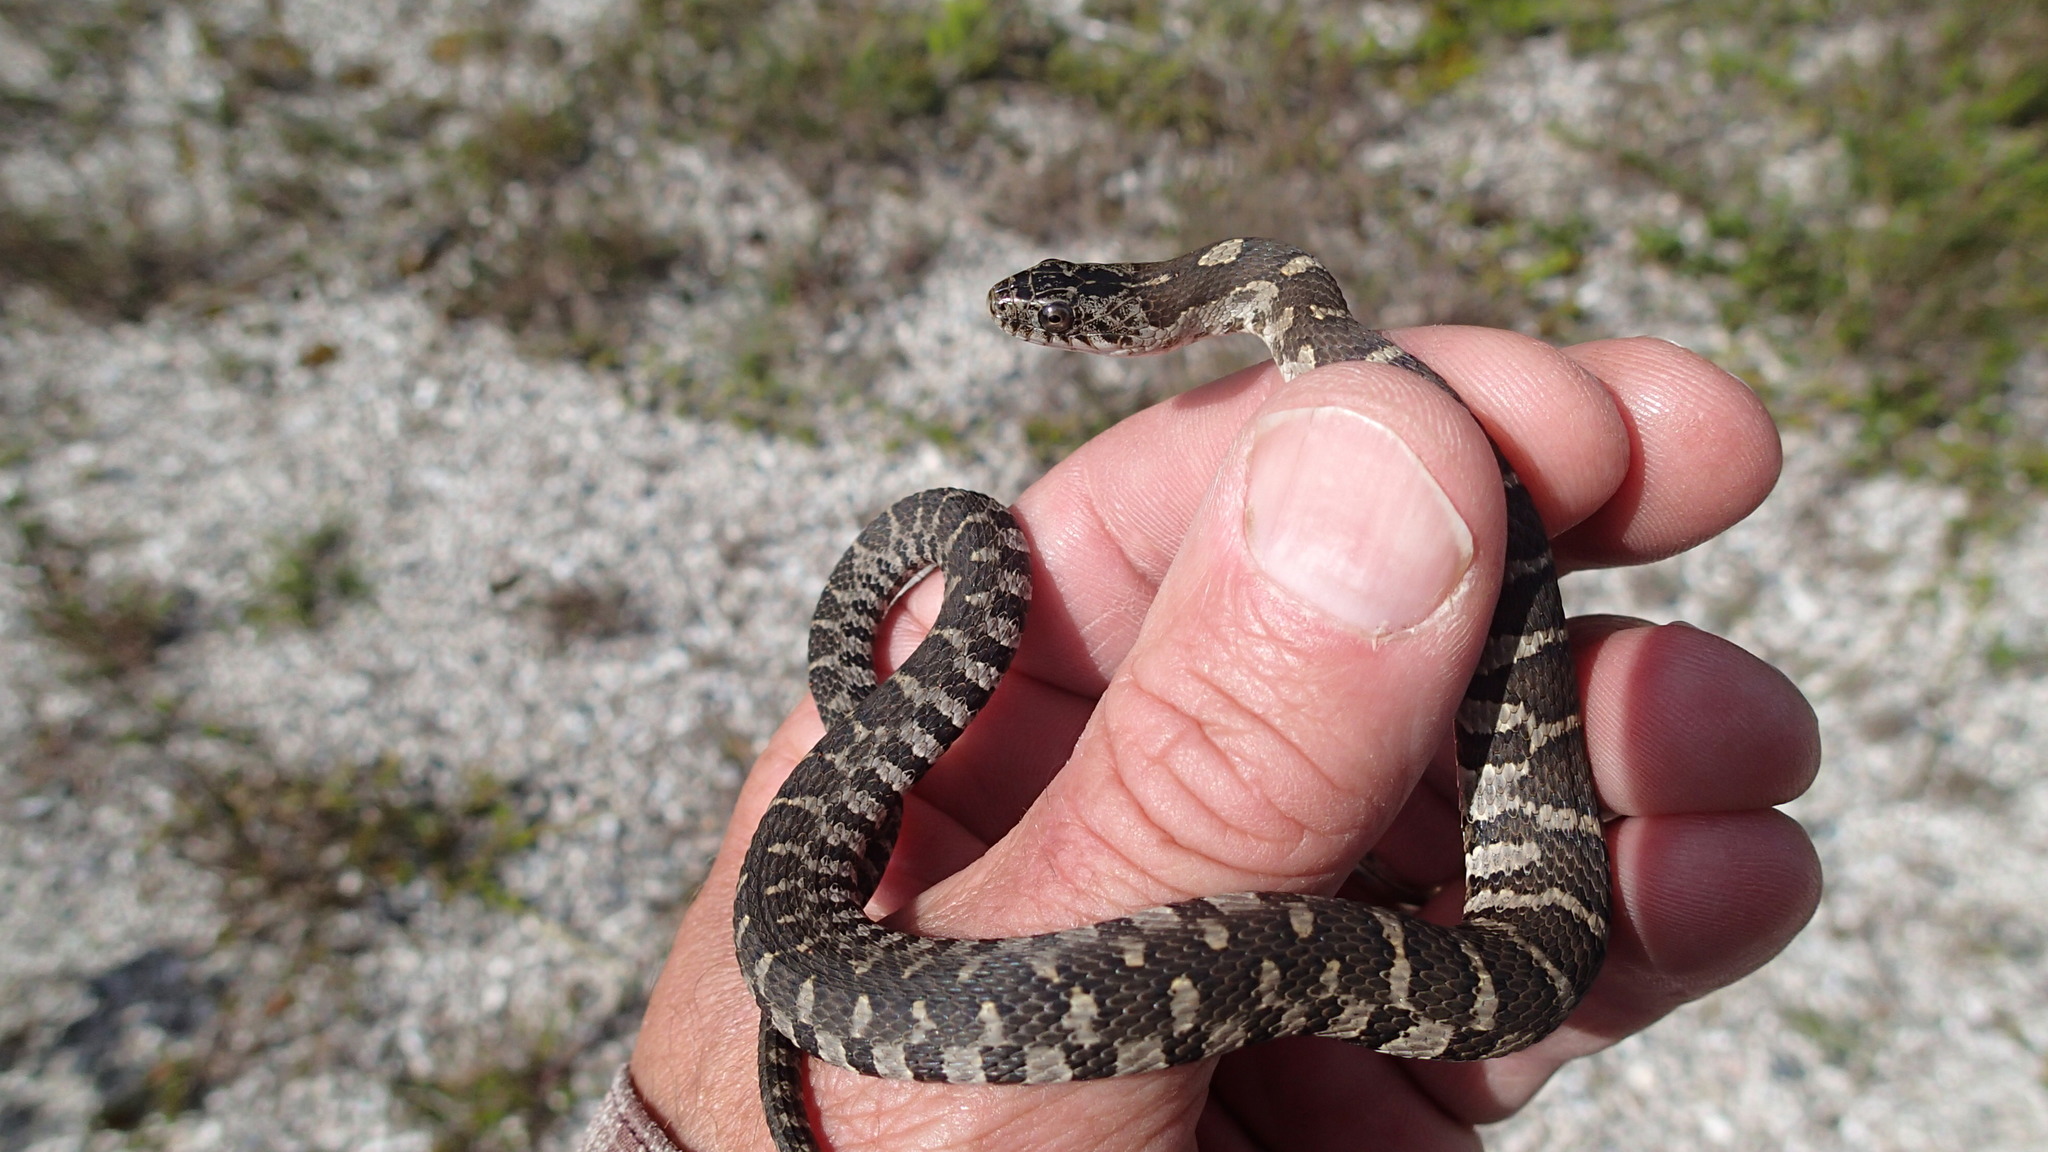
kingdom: Animalia
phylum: Chordata
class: Squamata
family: Colubridae
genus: Nerodia
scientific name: Nerodia sipedon
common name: Northern water snake
